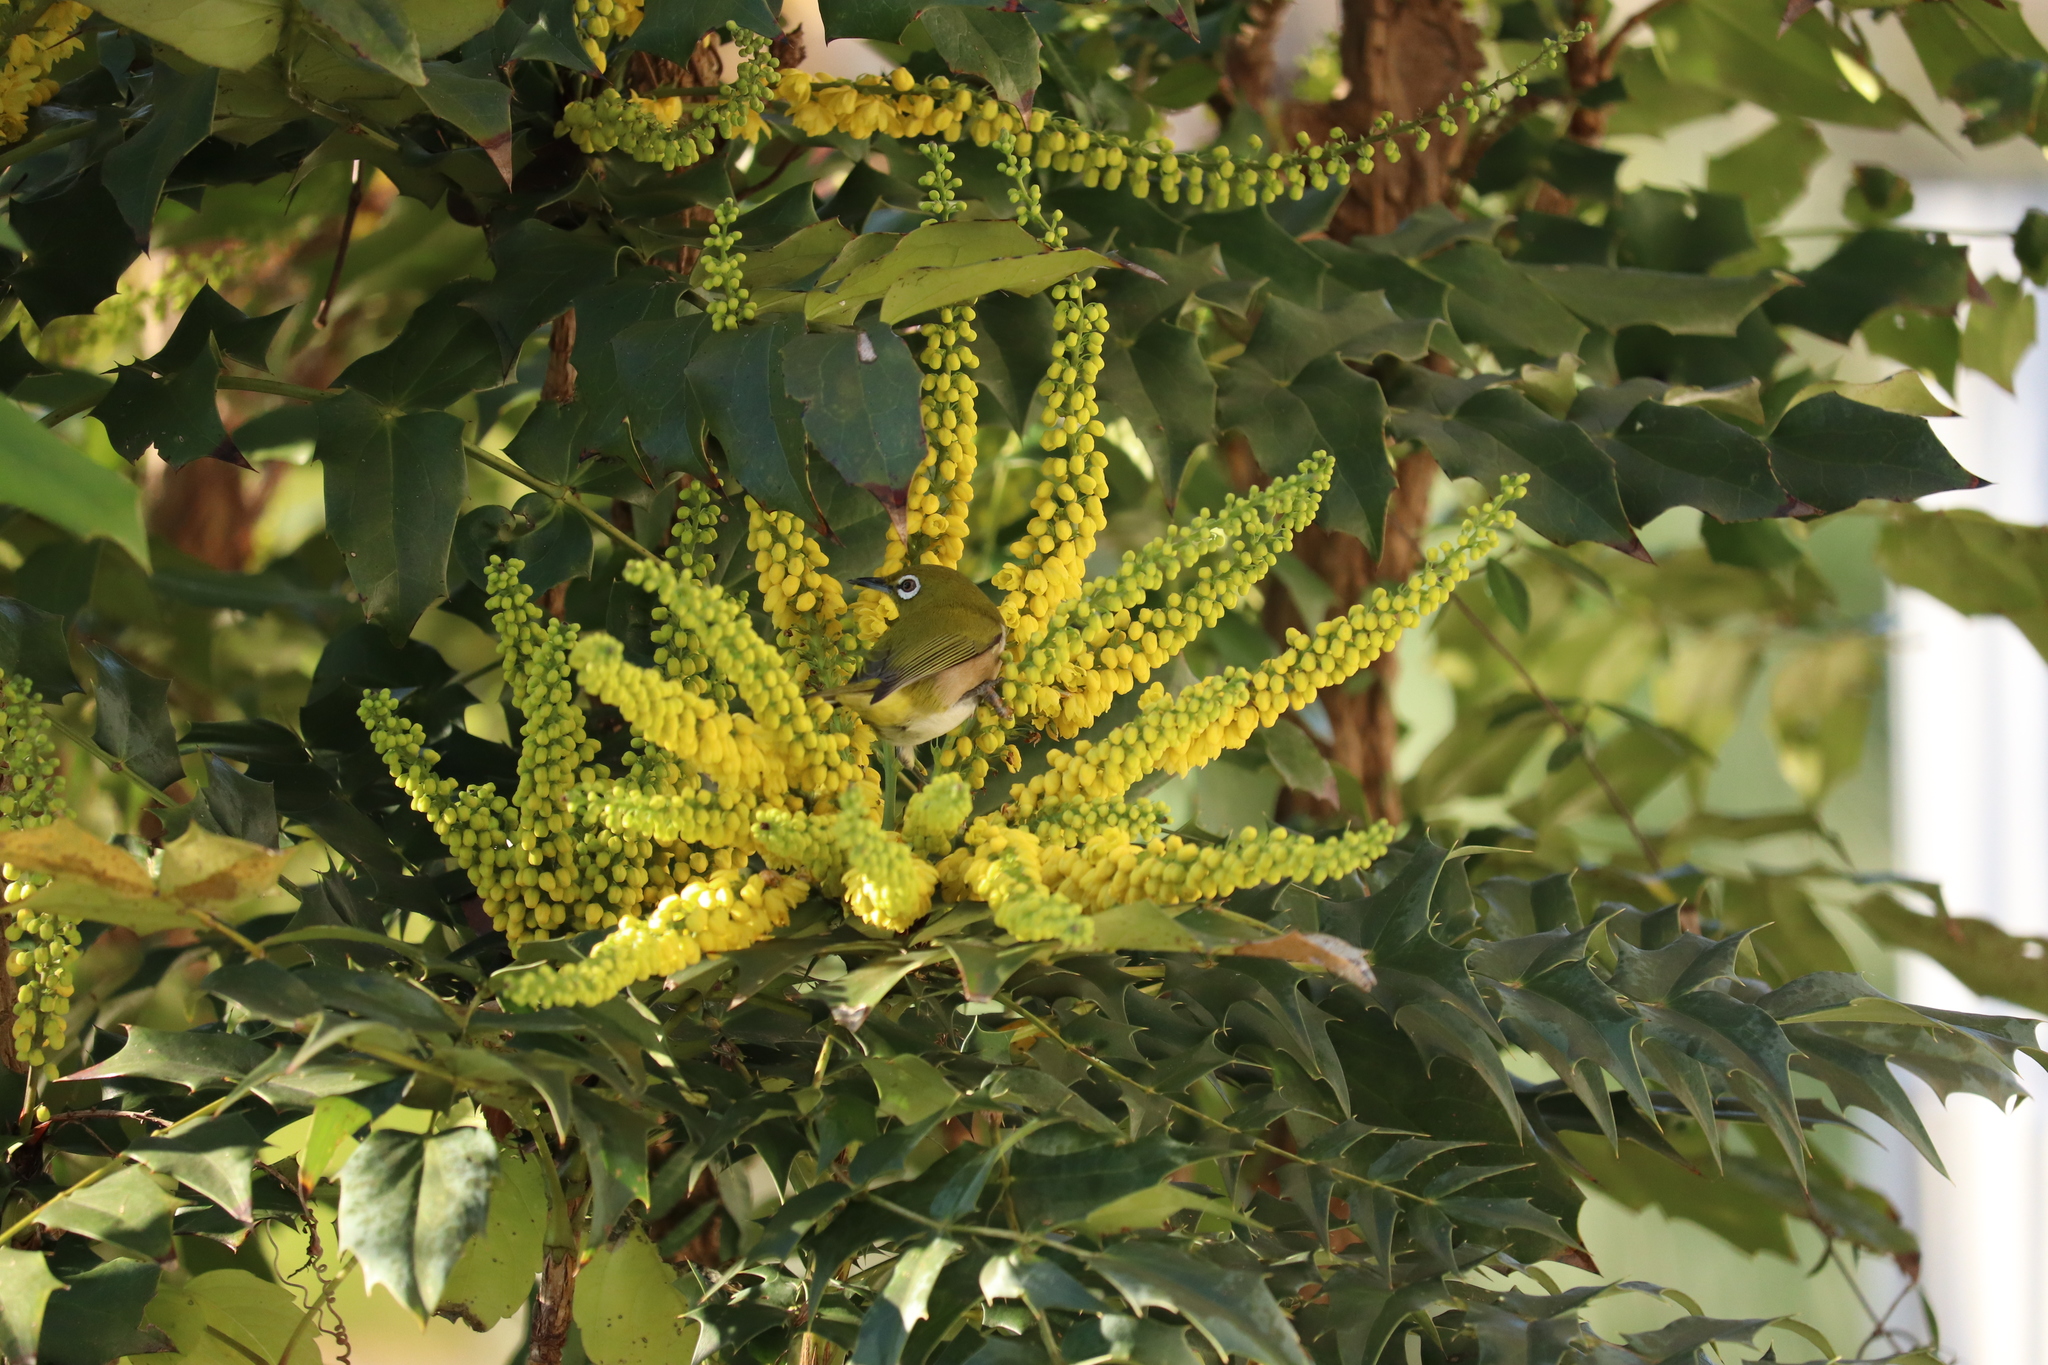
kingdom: Animalia
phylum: Chordata
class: Aves
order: Passeriformes
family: Zosteropidae
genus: Zosterops
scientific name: Zosterops japonicus
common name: Japanese white-eye
